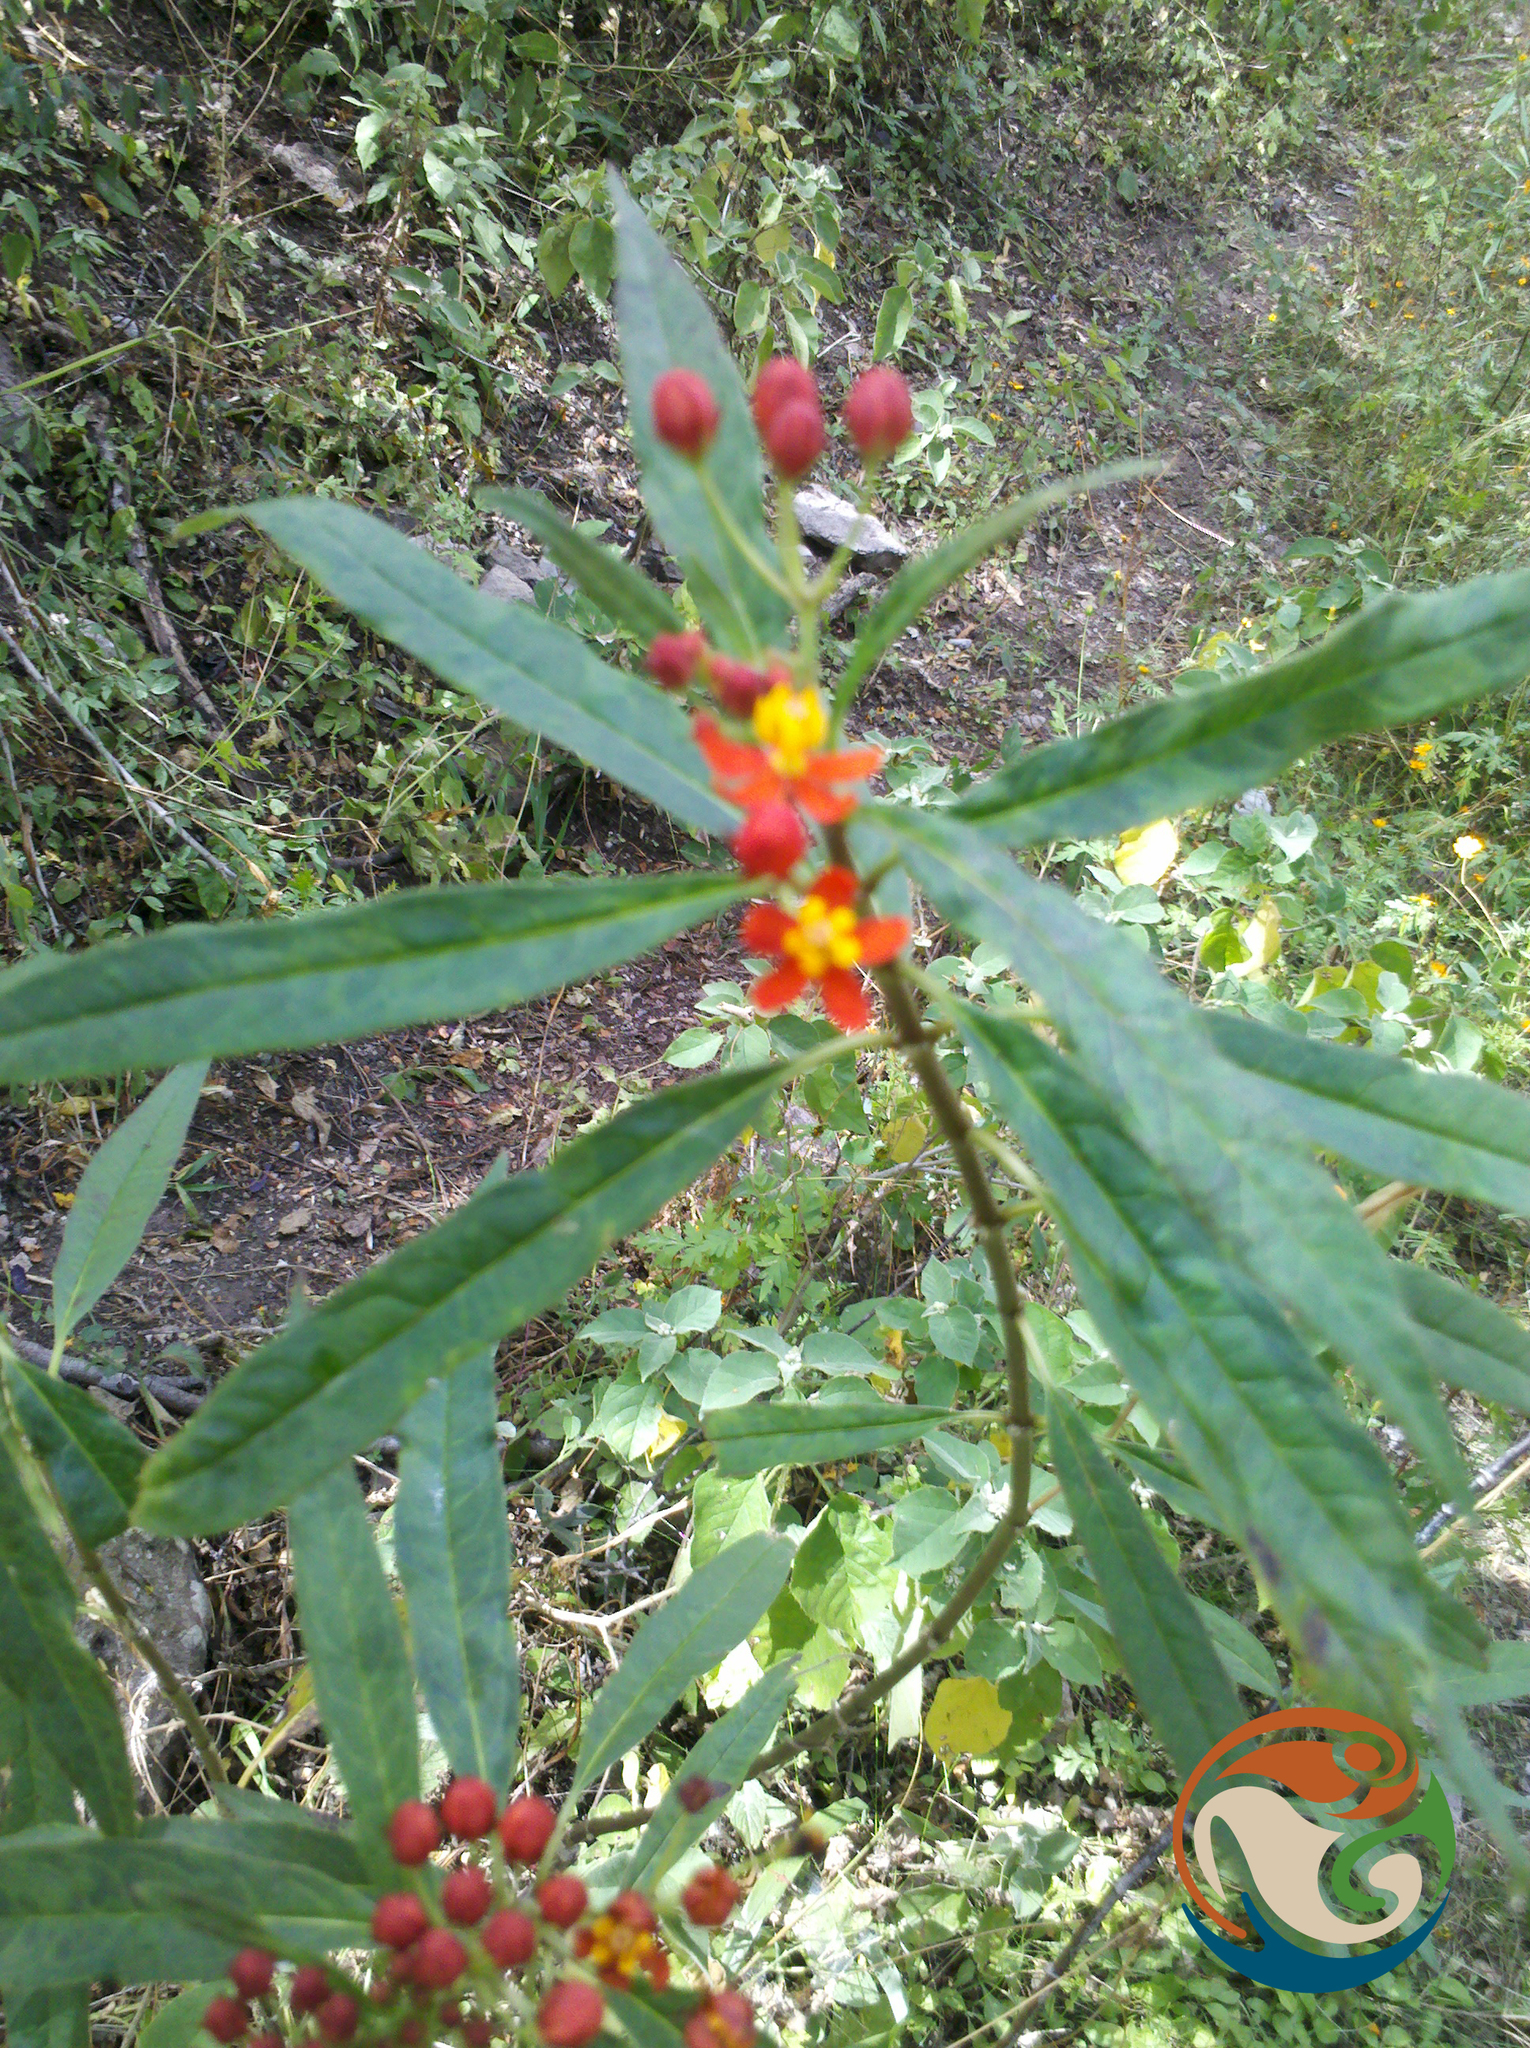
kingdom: Plantae
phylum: Tracheophyta
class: Magnoliopsida
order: Gentianales
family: Apocynaceae
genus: Asclepias
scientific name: Asclepias curassavica
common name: Bloodflower
